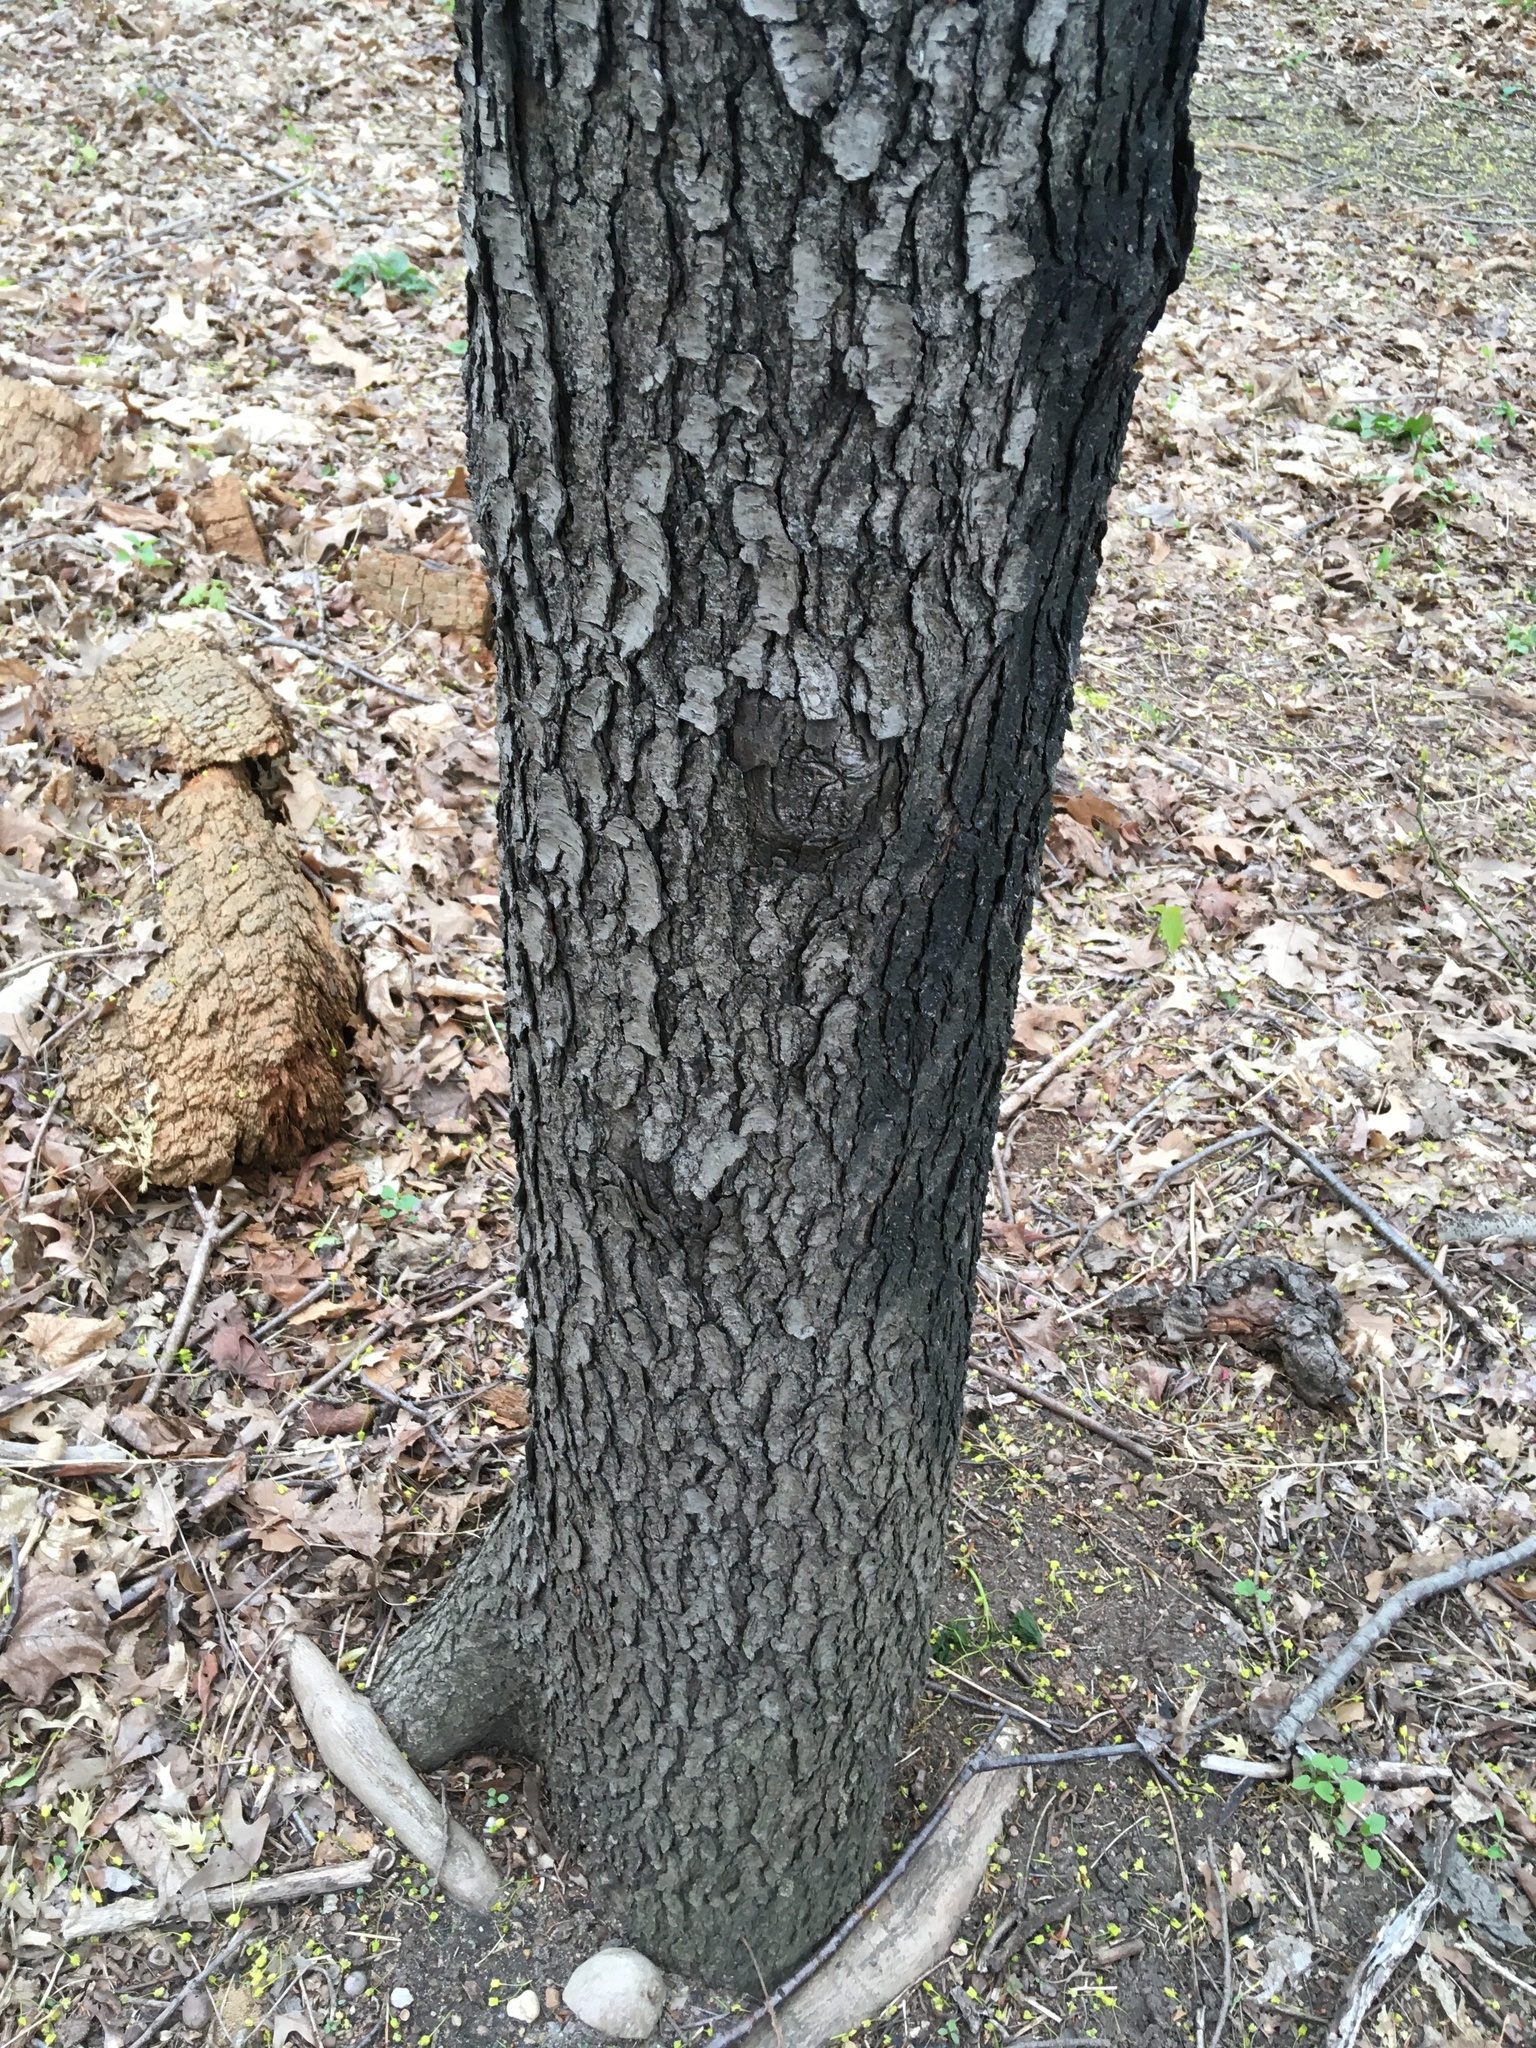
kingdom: Plantae
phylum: Tracheophyta
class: Magnoliopsida
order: Rosales
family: Rosaceae
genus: Prunus
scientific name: Prunus serotina
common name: Black cherry
